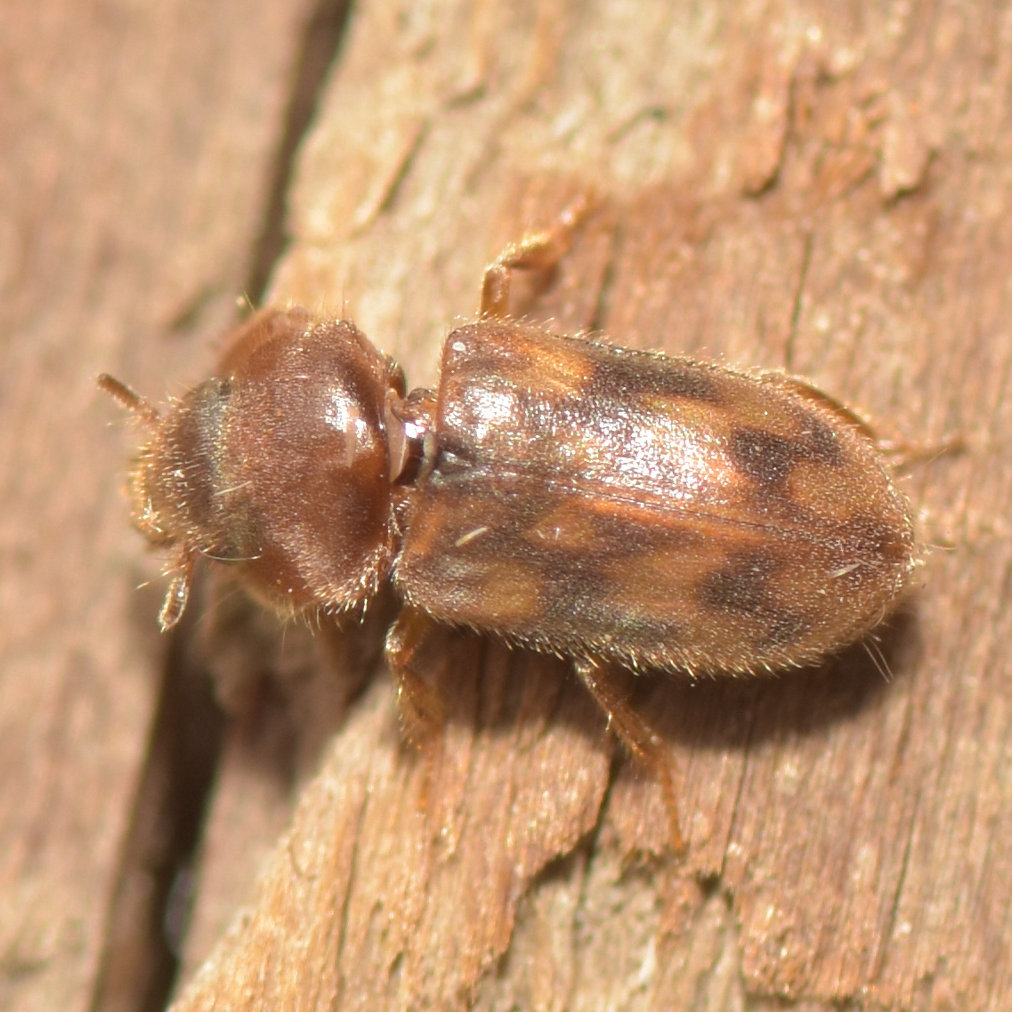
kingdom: Animalia
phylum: Arthropoda
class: Insecta
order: Coleoptera
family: Heteroceridae
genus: Dampfius
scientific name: Dampfius collaris
